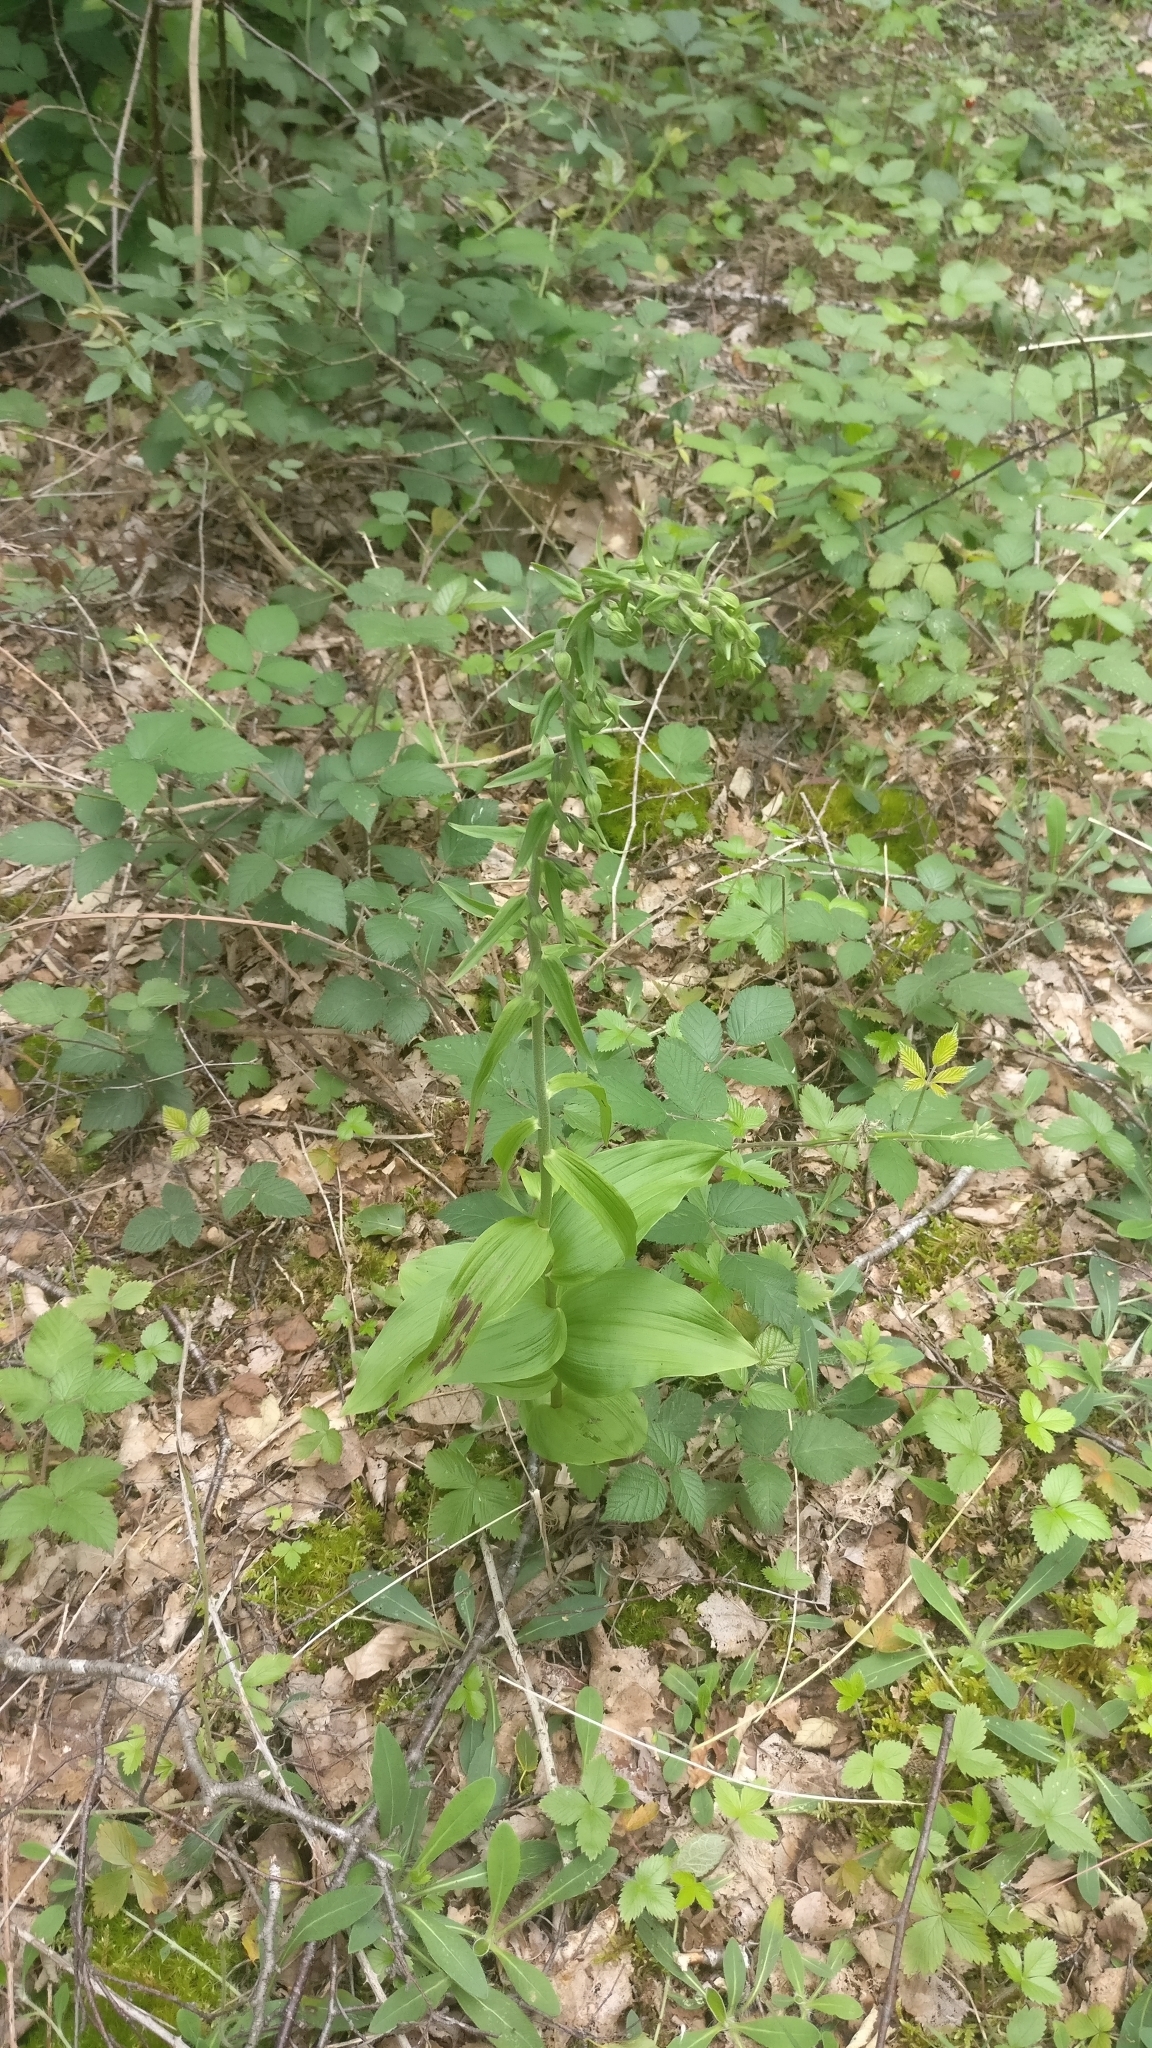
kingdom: Plantae
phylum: Tracheophyta
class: Liliopsida
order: Asparagales
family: Orchidaceae
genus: Epipactis
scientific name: Epipactis helleborine
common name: Broad-leaved helleborine
